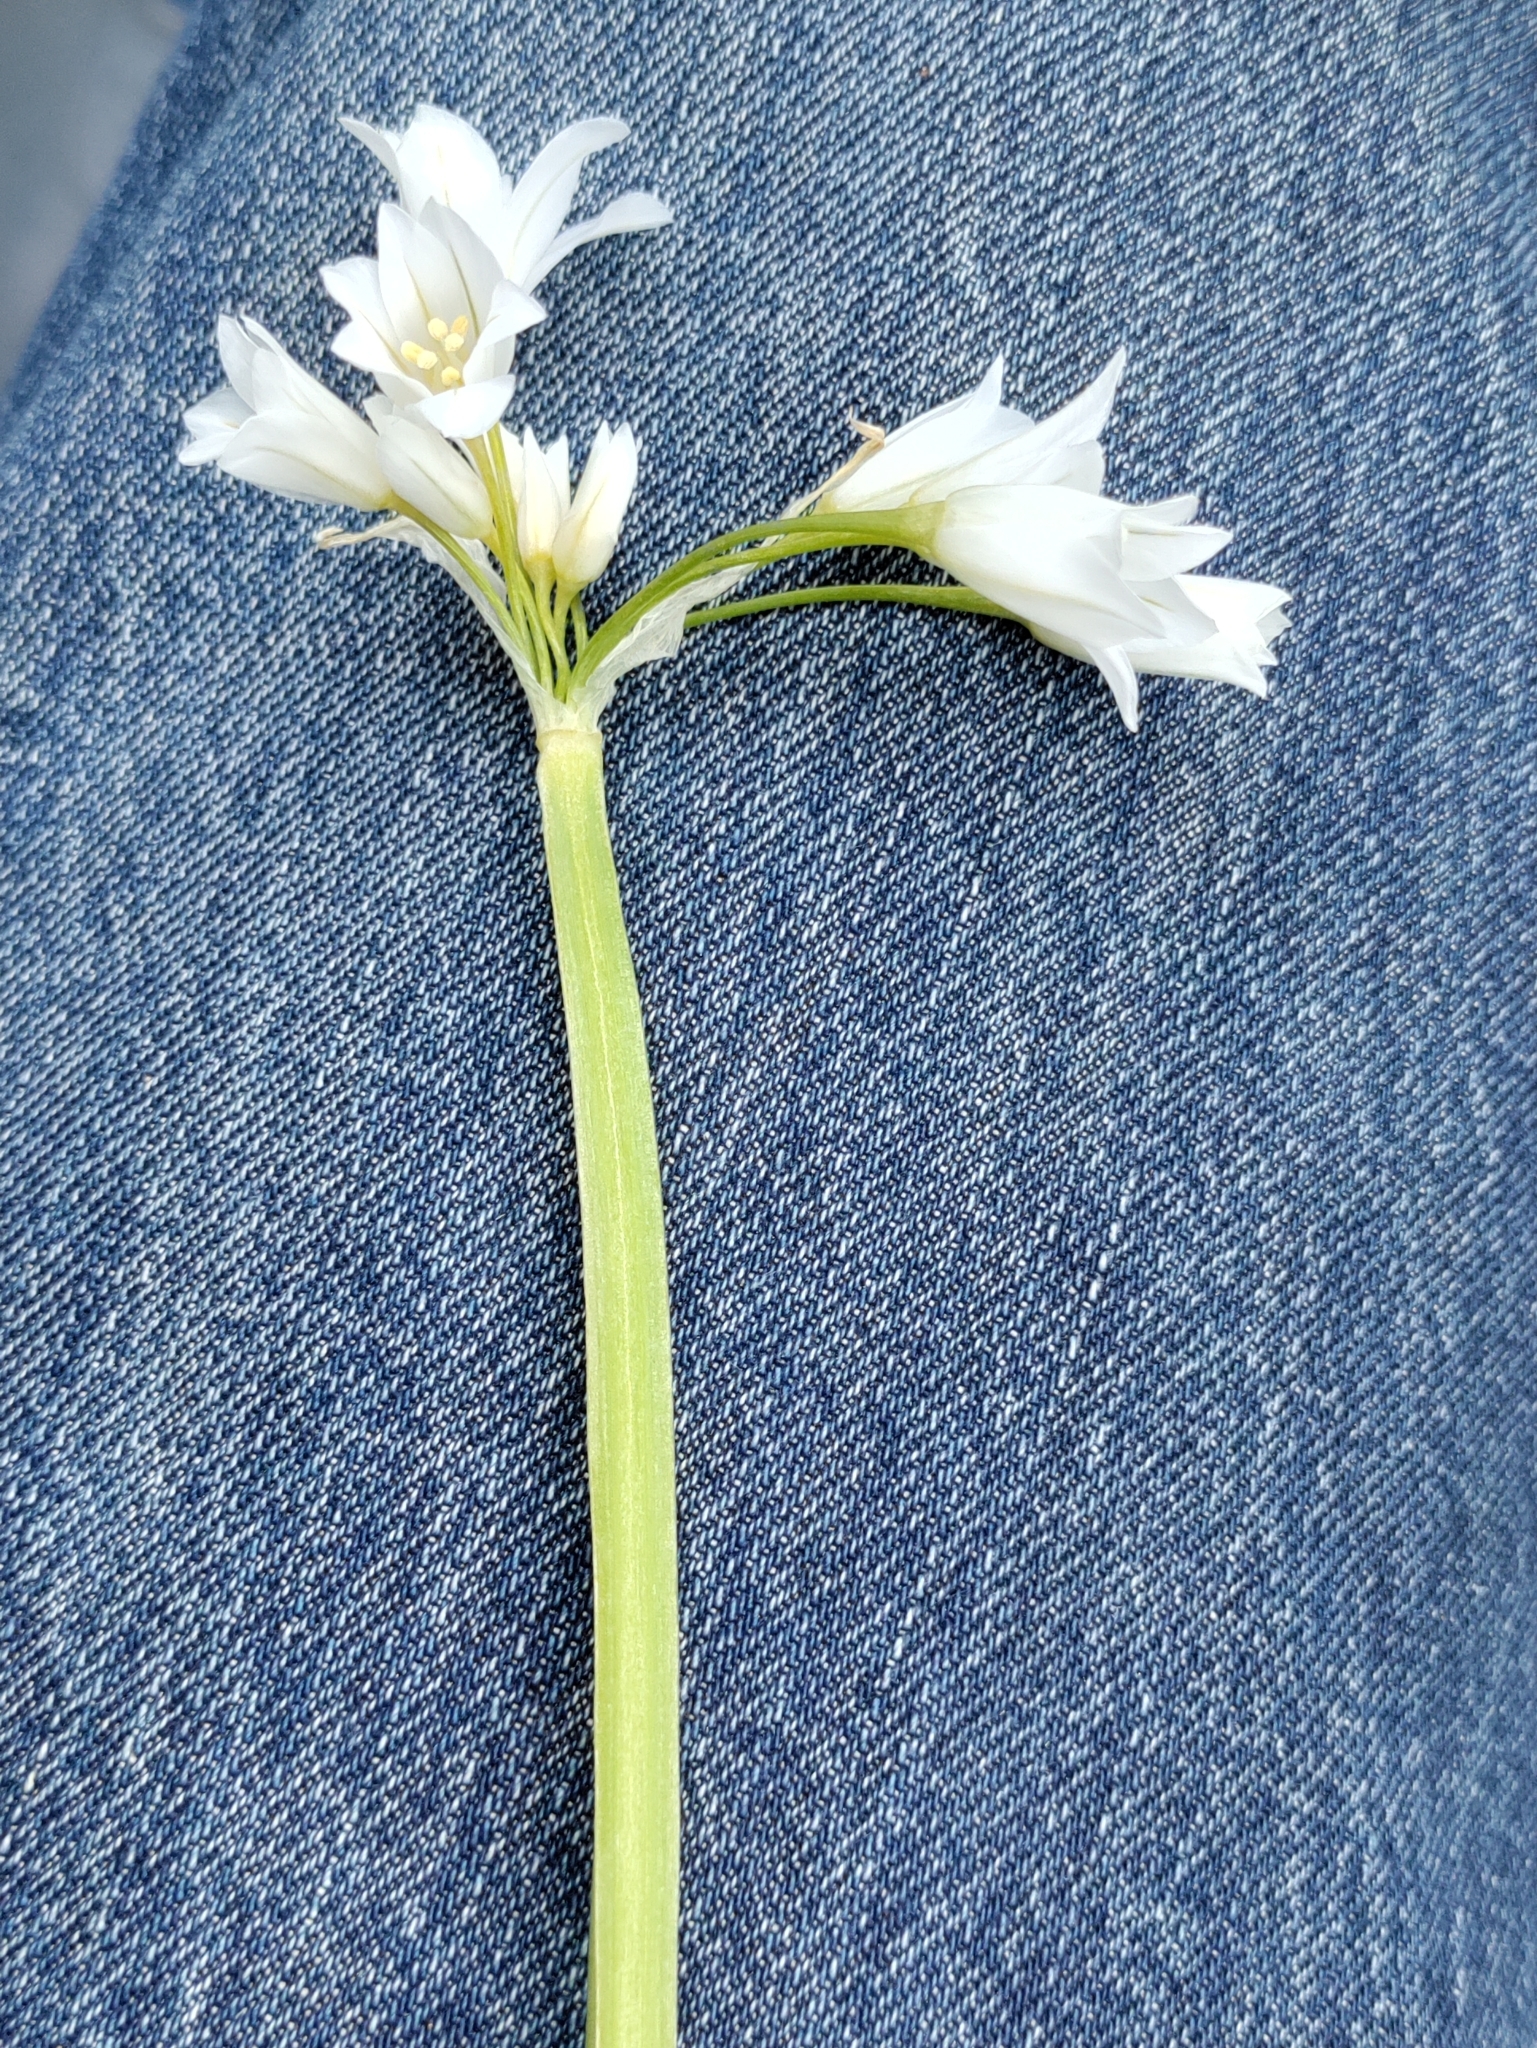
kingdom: Plantae
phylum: Tracheophyta
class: Liliopsida
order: Asparagales
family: Amaryllidaceae
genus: Allium
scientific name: Allium triquetrum
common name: Three-cornered garlic
